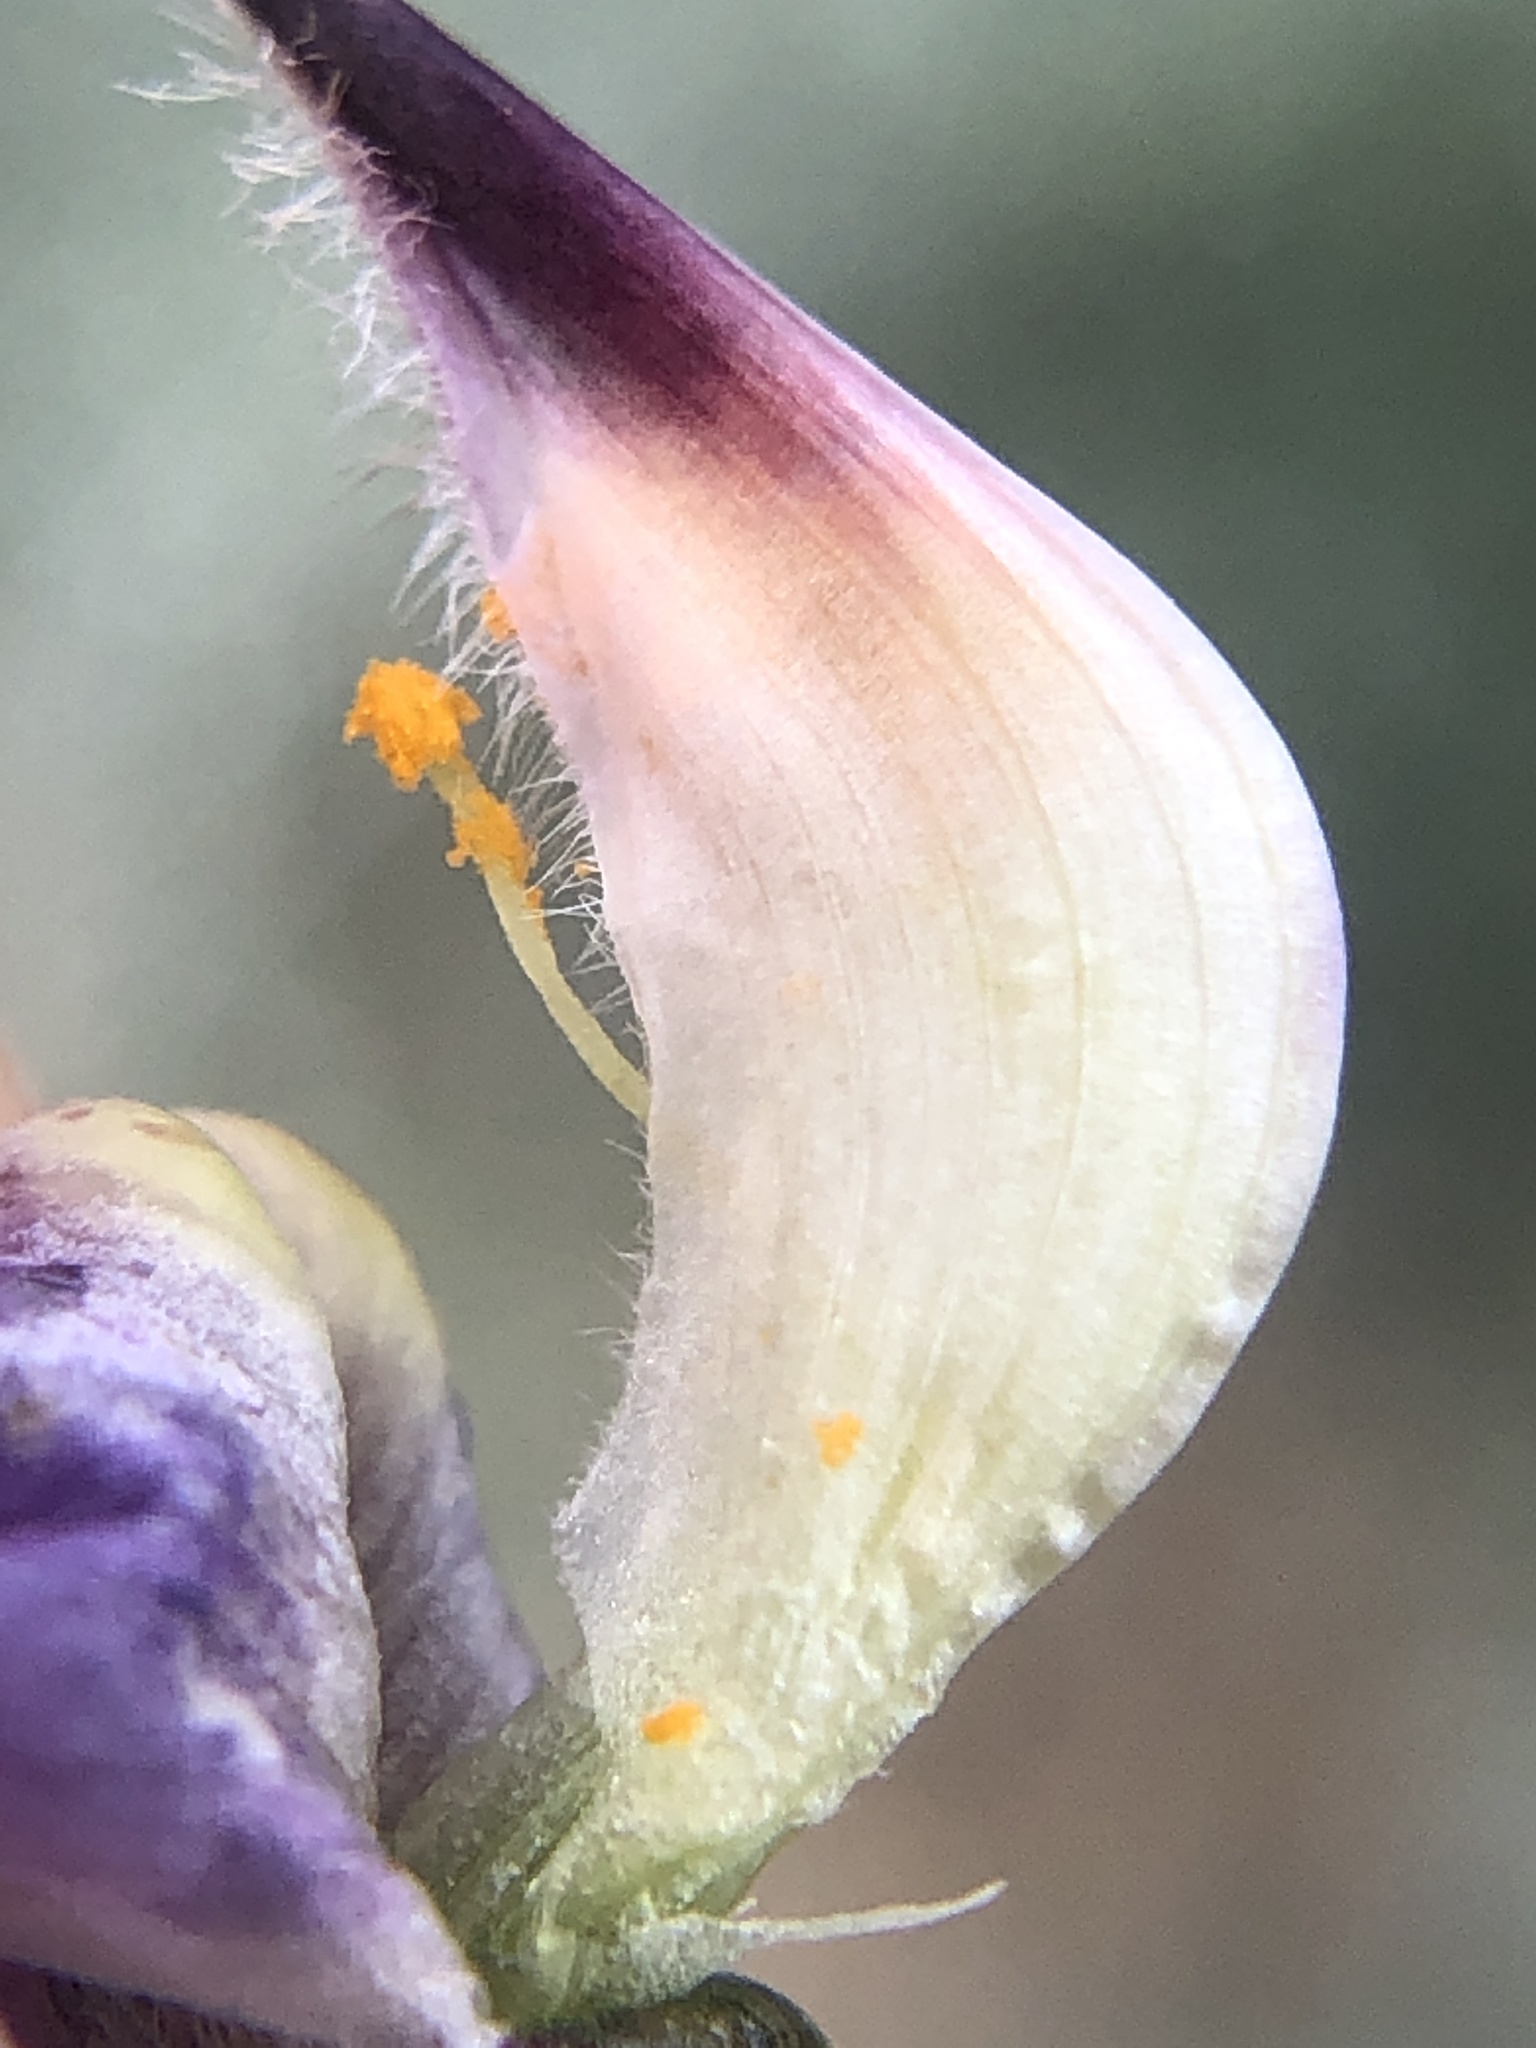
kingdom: Plantae
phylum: Tracheophyta
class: Magnoliopsida
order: Fabales
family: Fabaceae
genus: Lupinus
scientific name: Lupinus albifrons
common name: Foothill lupine
